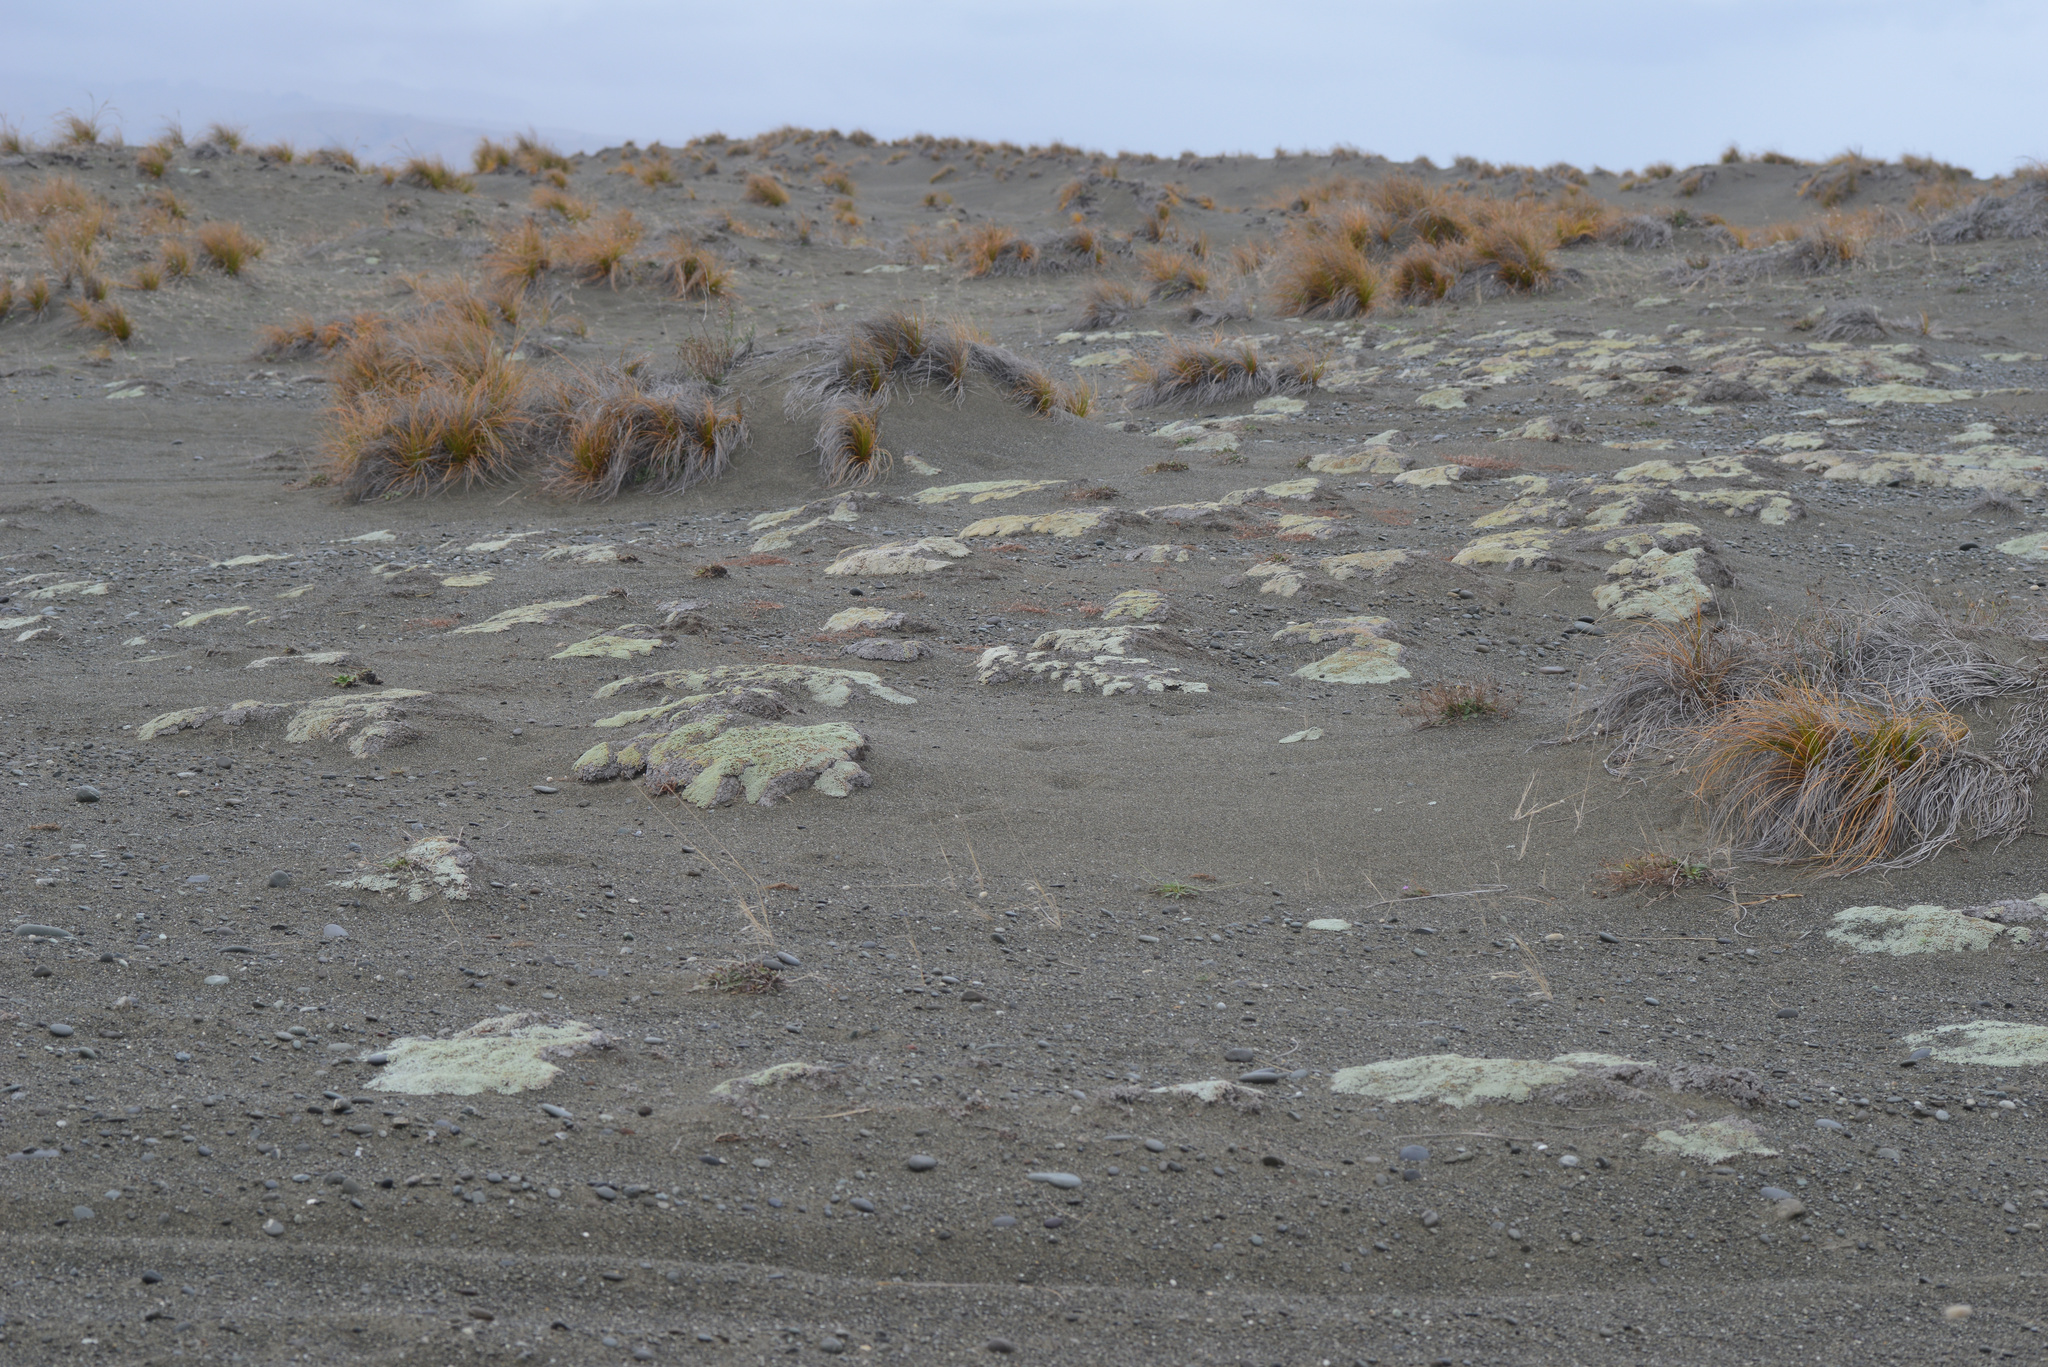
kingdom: Plantae
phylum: Tracheophyta
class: Magnoliopsida
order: Asterales
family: Asteraceae
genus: Raoulia
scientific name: Raoulia australis
